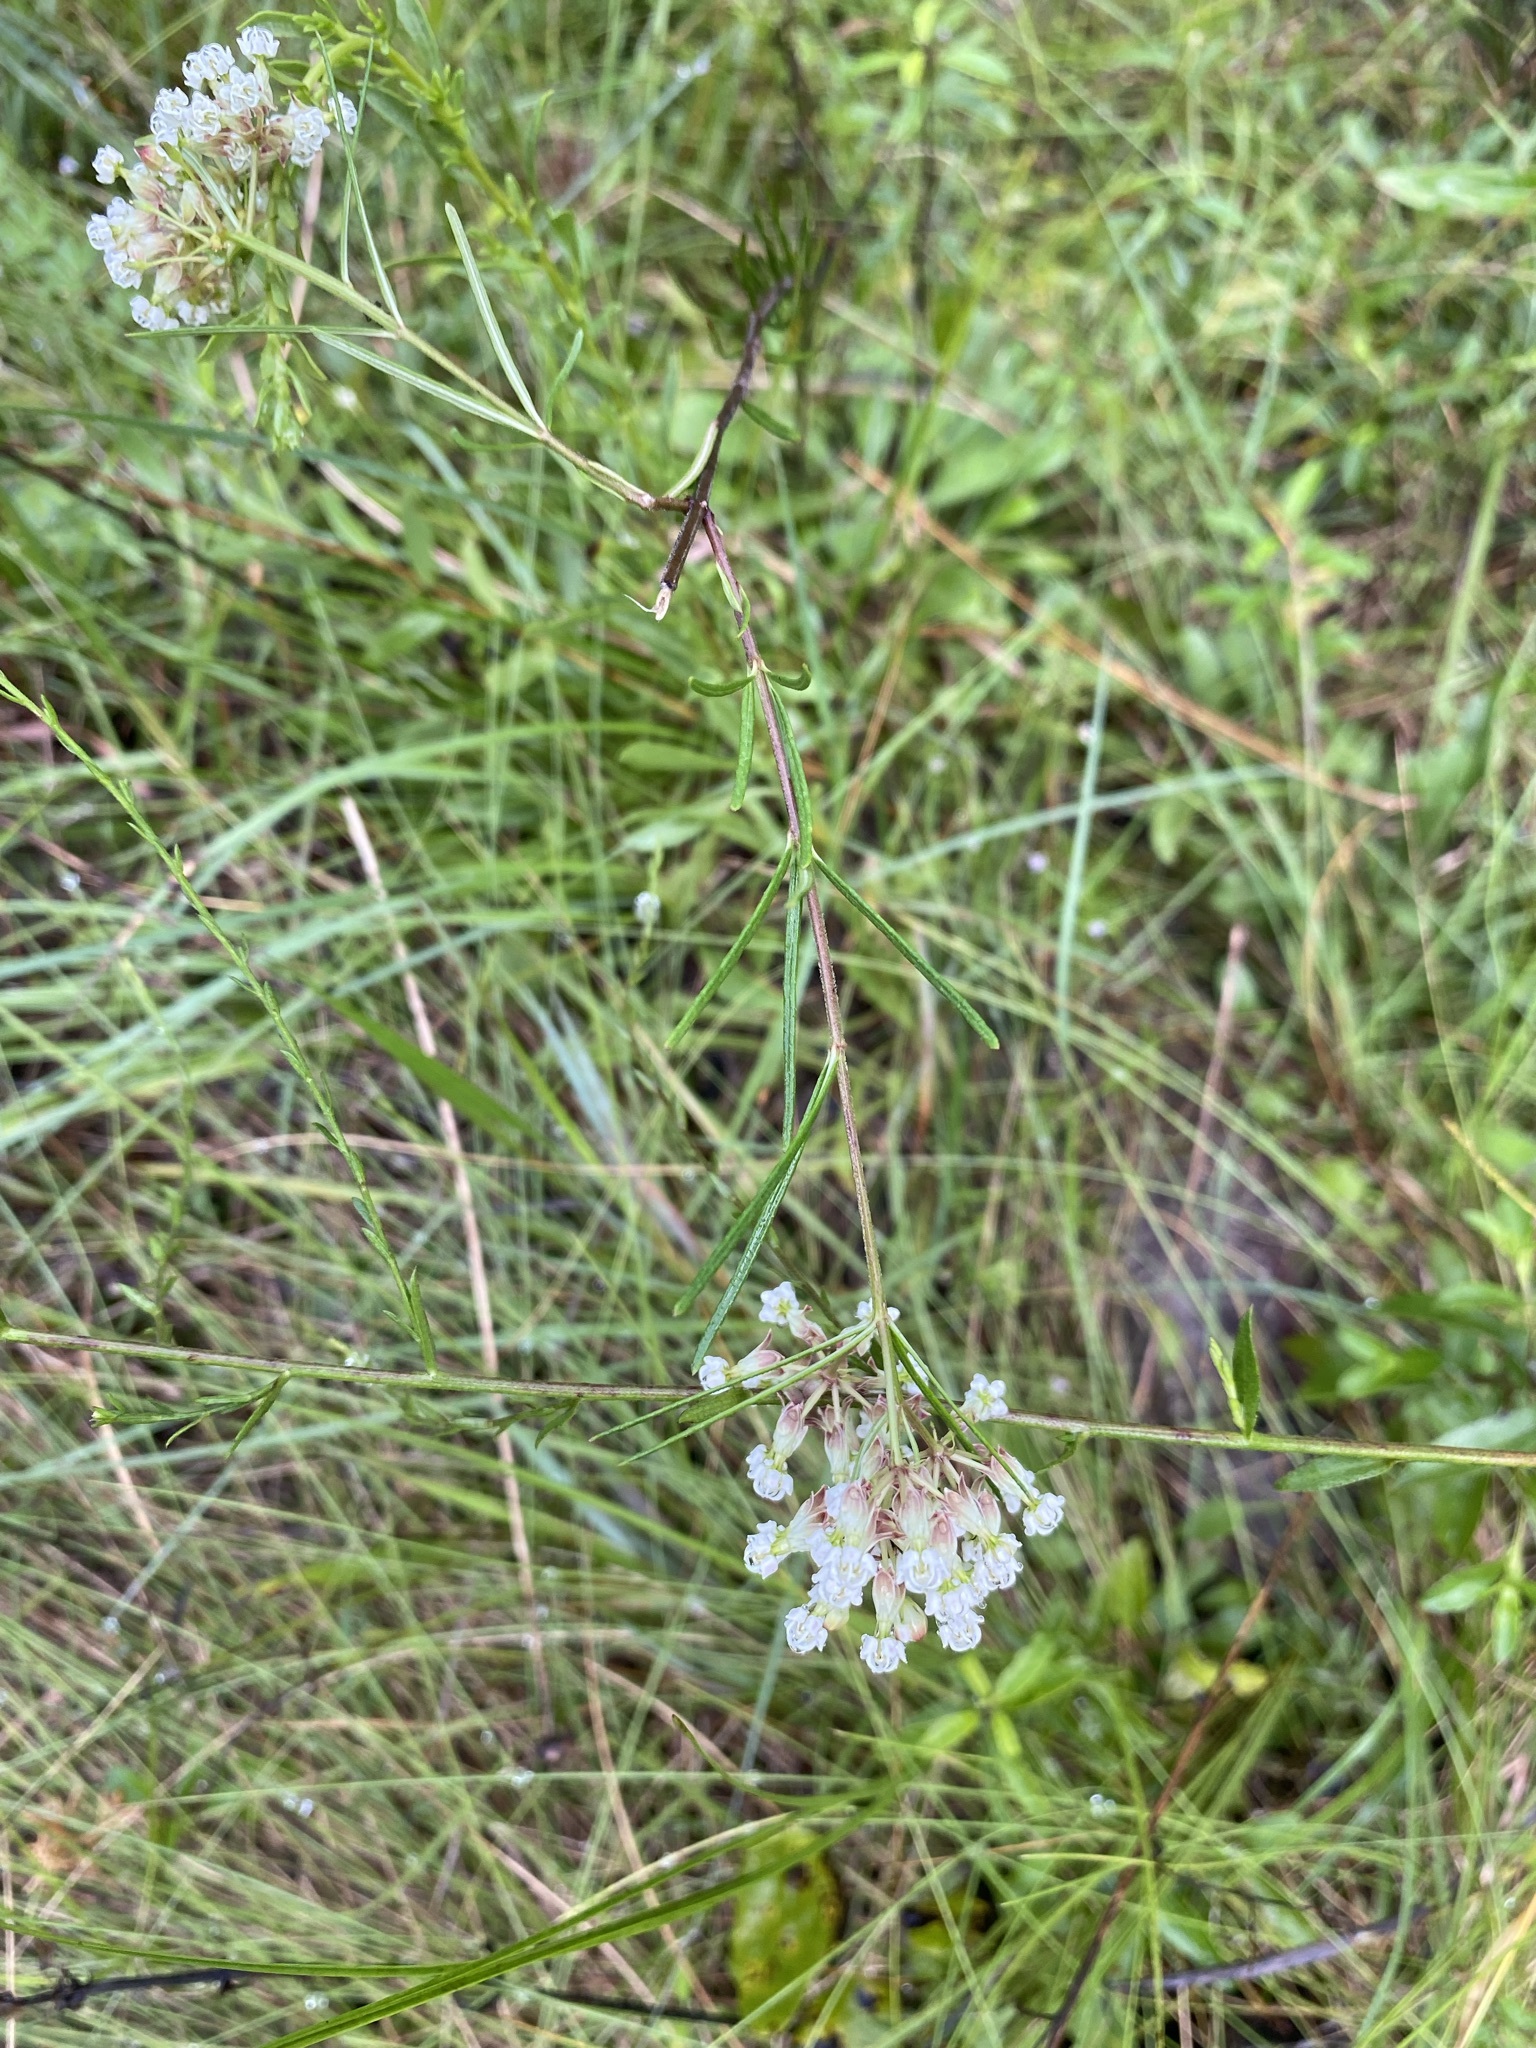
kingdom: Plantae
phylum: Tracheophyta
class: Magnoliopsida
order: Gentianales
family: Apocynaceae
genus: Asclepias
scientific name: Asclepias verticillata
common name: Eastern whorled milkweed
